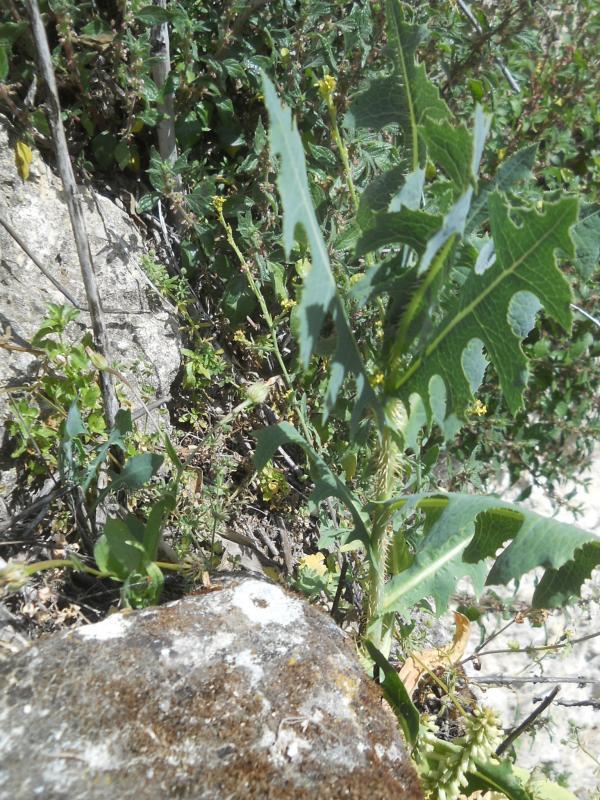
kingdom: Plantae
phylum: Tracheophyta
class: Magnoliopsida
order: Asterales
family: Asteraceae
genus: Lactuca
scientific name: Lactuca serriola
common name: Prickly lettuce
